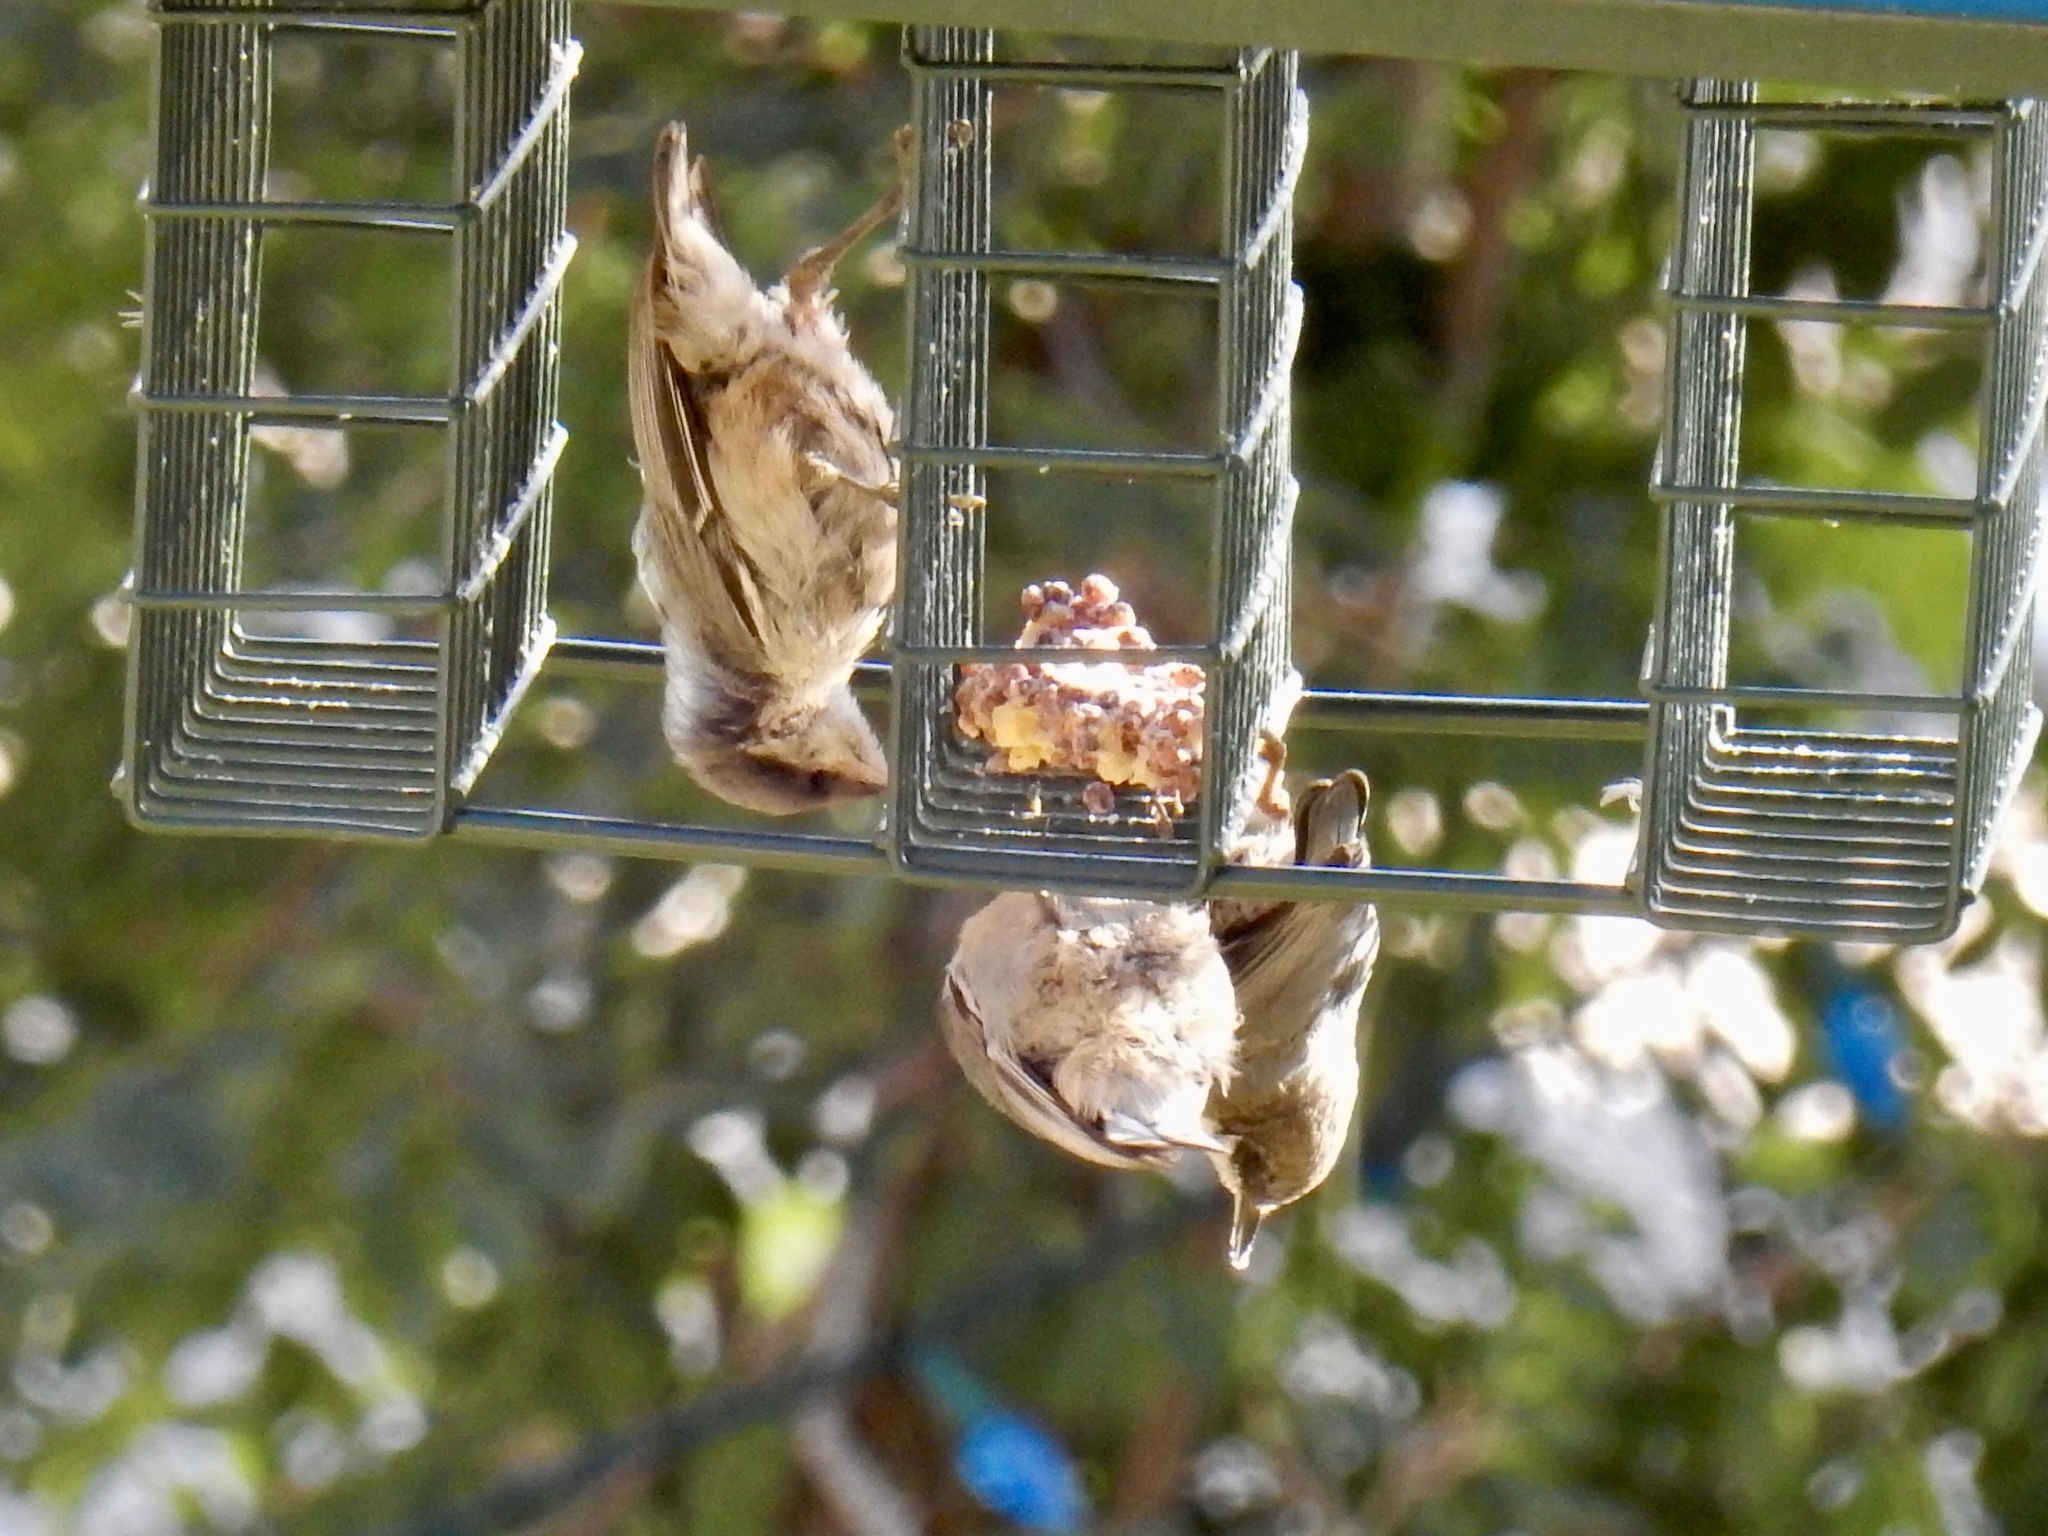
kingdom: Animalia
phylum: Chordata
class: Aves
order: Passeriformes
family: Sittidae
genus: Sitta
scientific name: Sitta pygmaea
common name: Pygmy nuthatch
